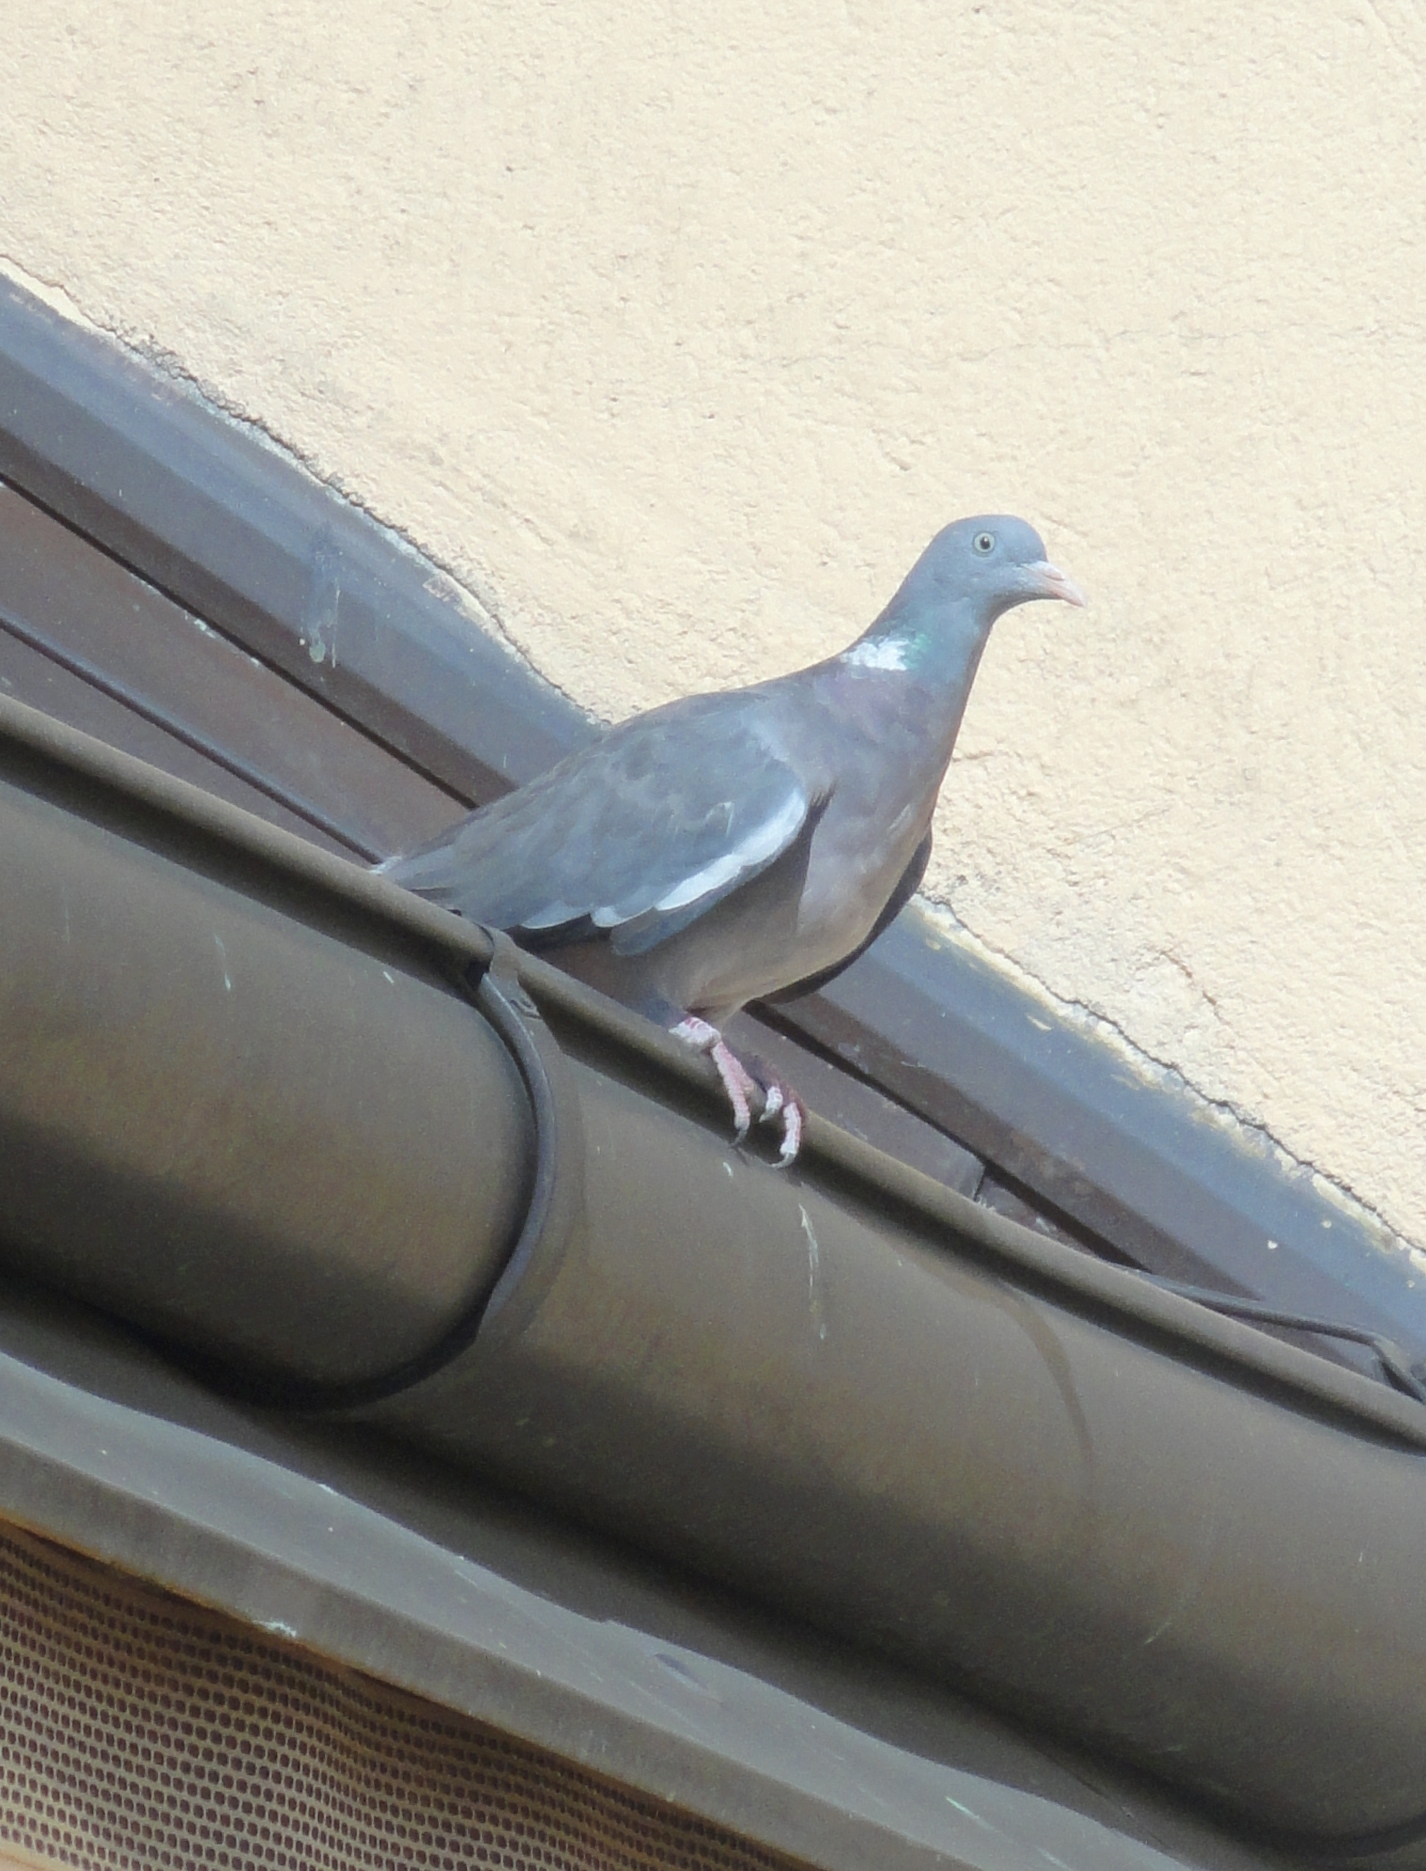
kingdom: Animalia
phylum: Chordata
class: Aves
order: Columbiformes
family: Columbidae
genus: Columba
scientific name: Columba palumbus
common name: Common wood pigeon
